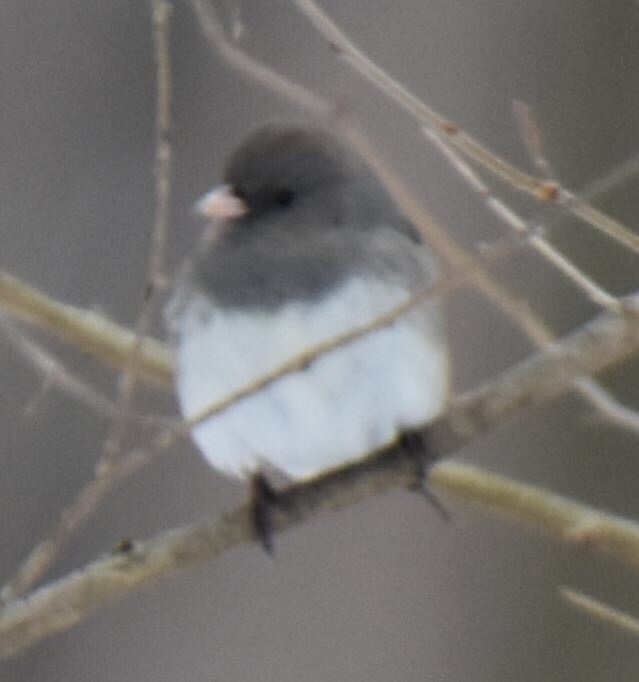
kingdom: Animalia
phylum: Chordata
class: Aves
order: Passeriformes
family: Passerellidae
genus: Junco
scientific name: Junco hyemalis
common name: Dark-eyed junco
